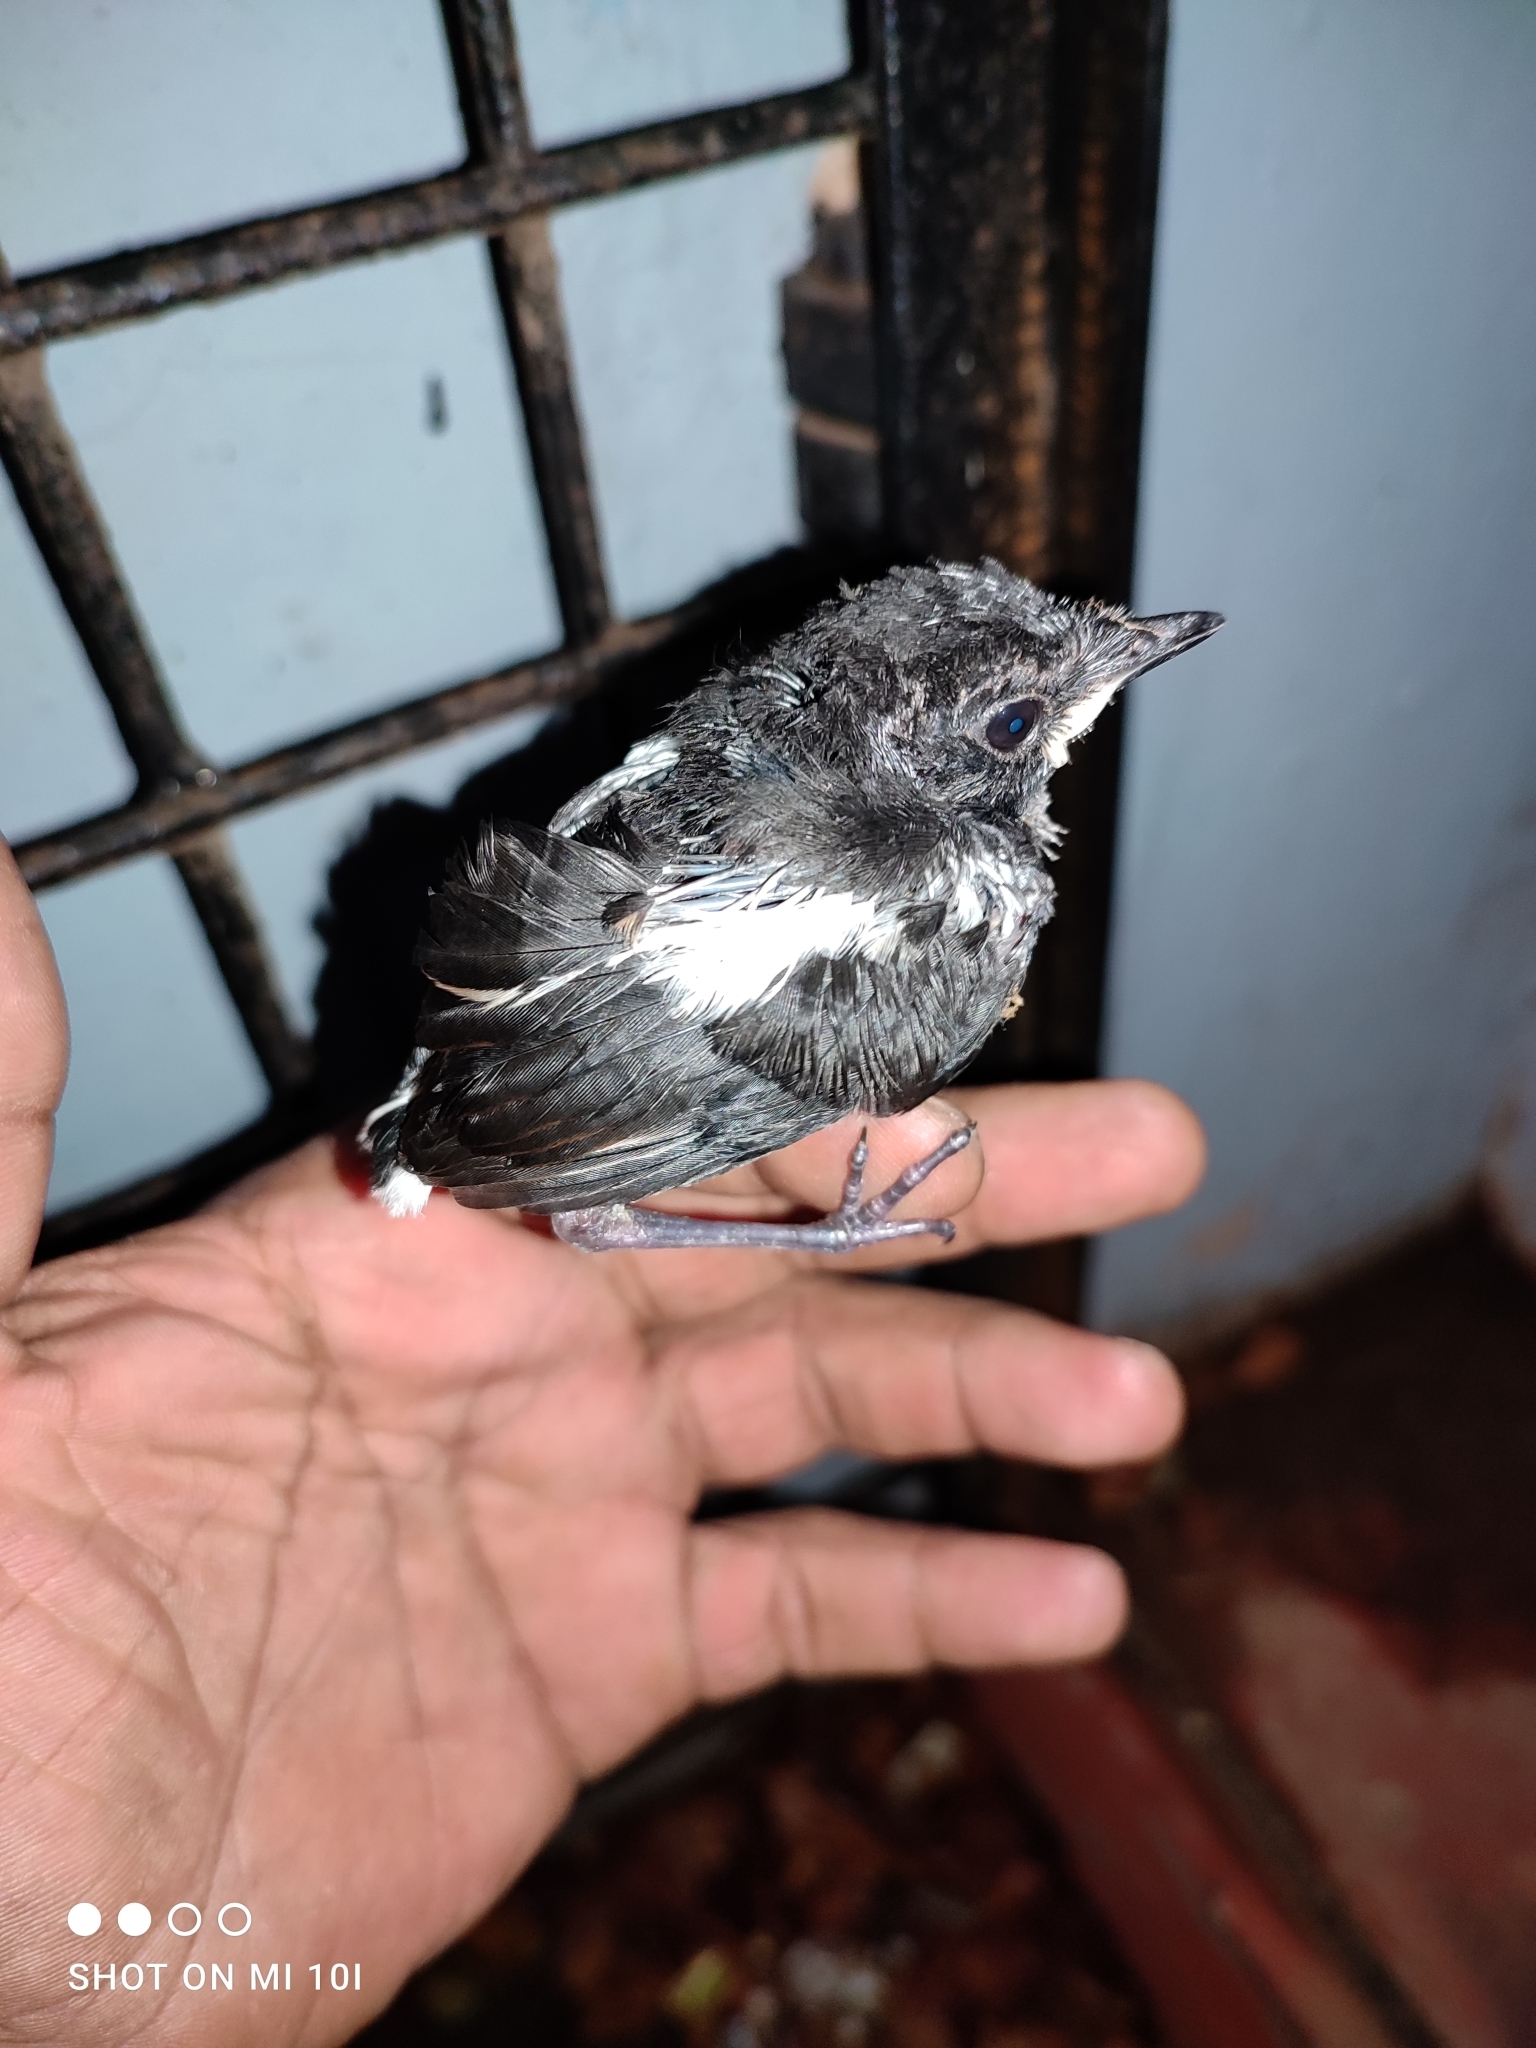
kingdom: Animalia
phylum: Chordata
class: Aves
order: Passeriformes
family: Muscicapidae
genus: Copsychus
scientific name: Copsychus saularis
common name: Oriental magpie-robin
